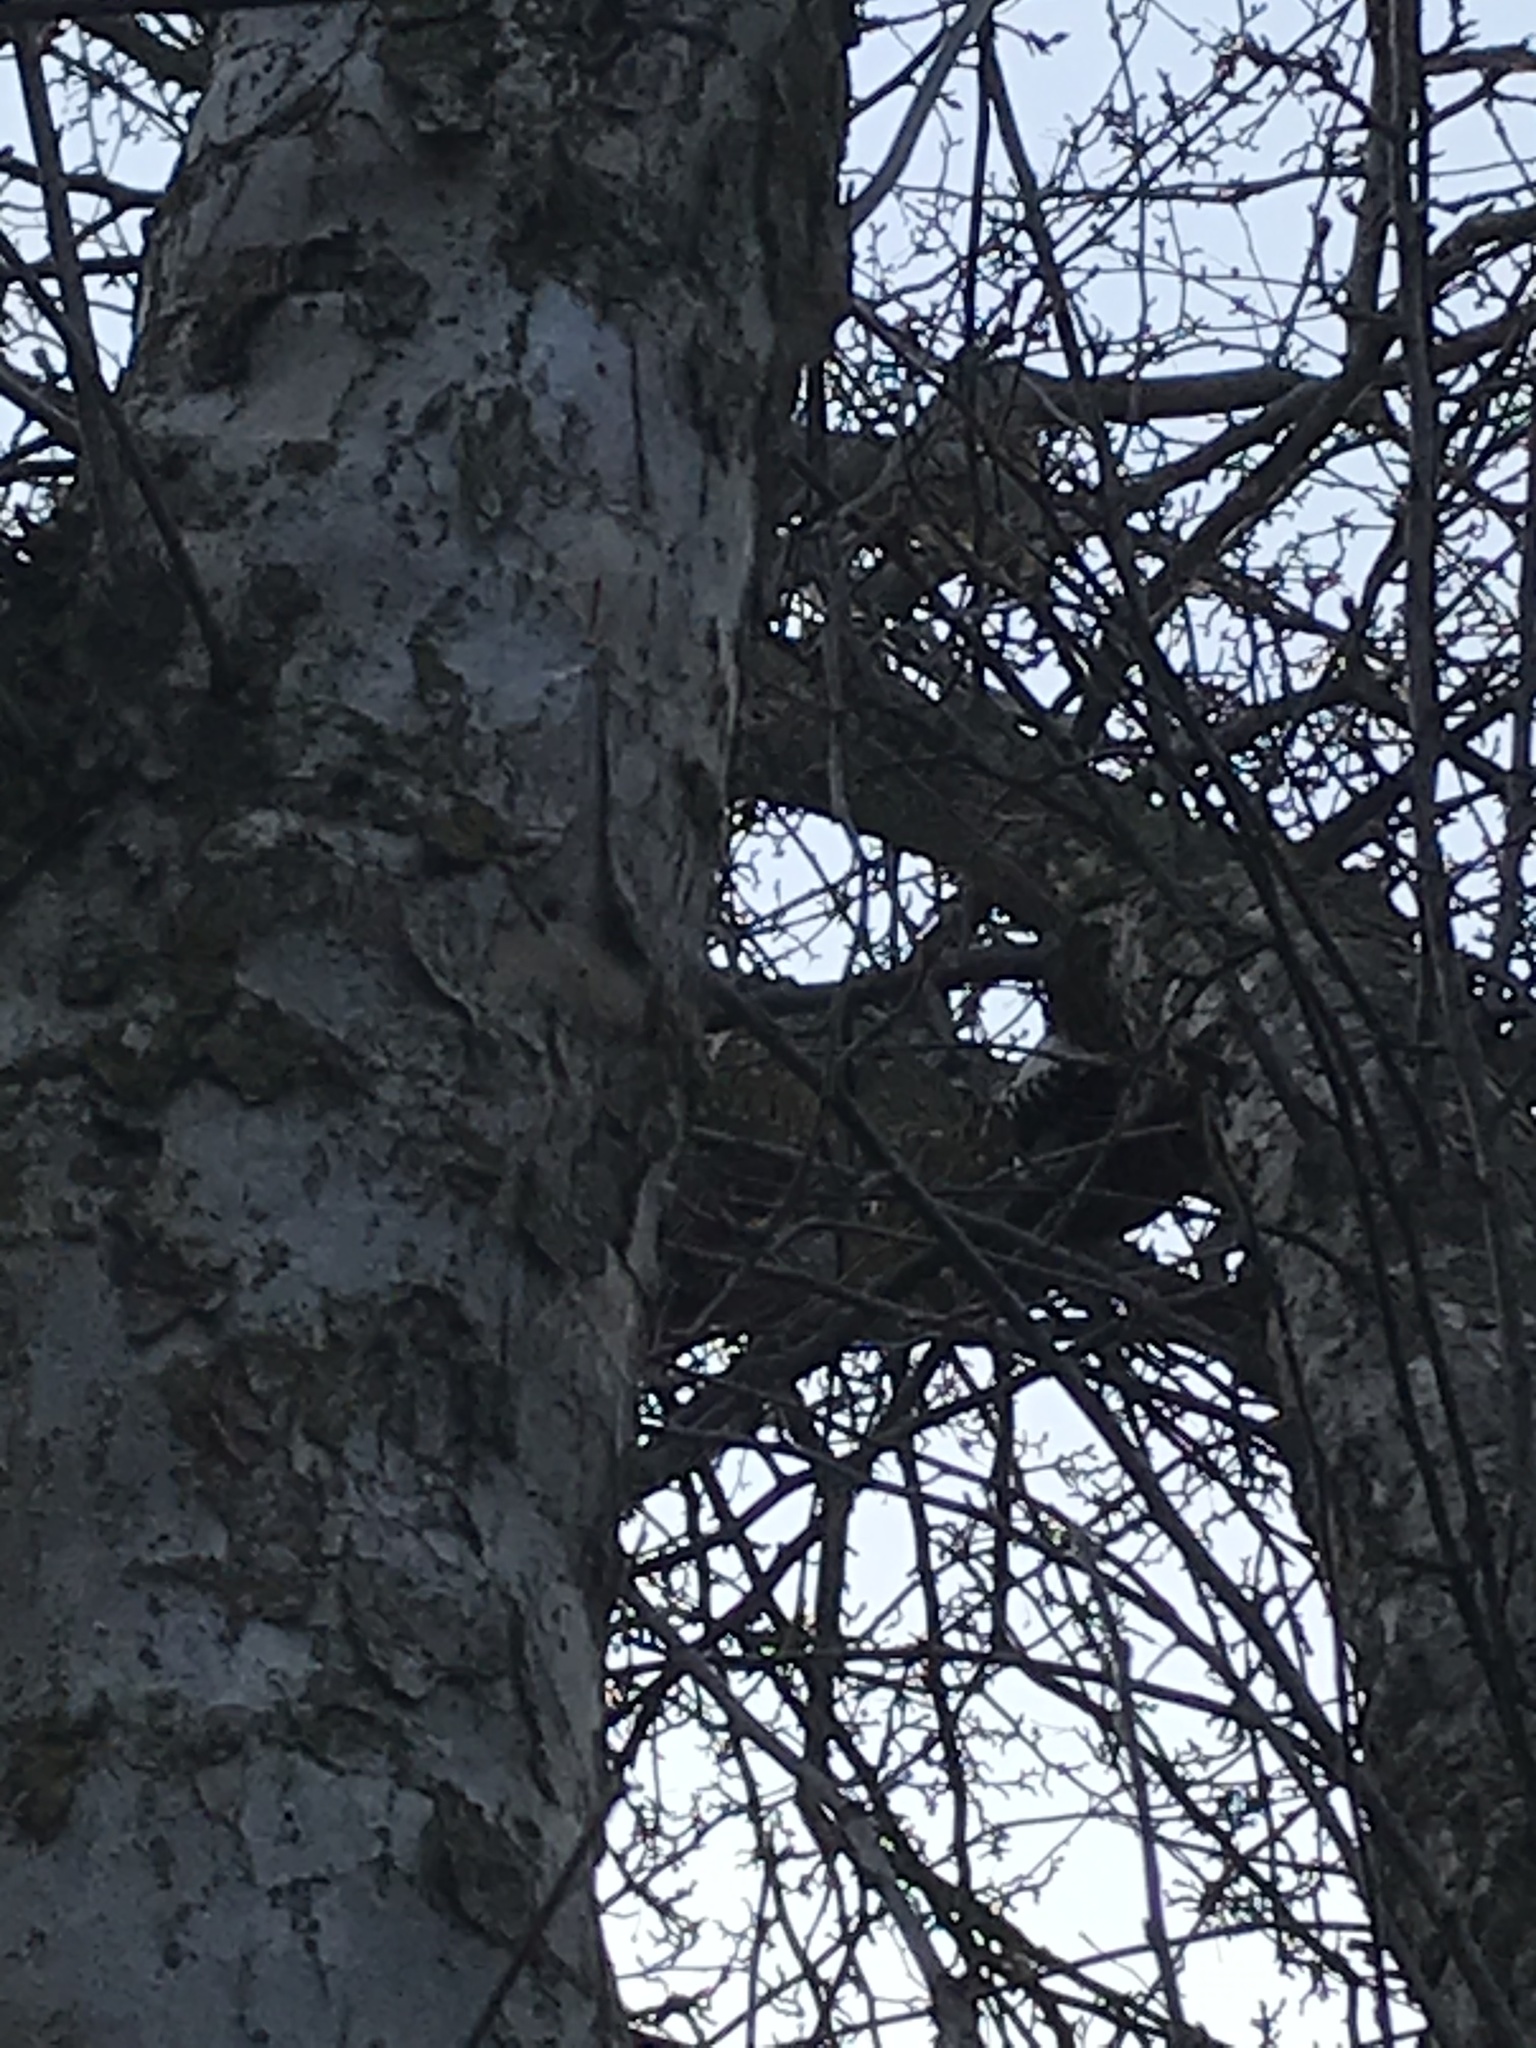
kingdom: Animalia
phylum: Chordata
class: Aves
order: Piciformes
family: Picidae
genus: Dryobates
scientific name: Dryobates pubescens
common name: Downy woodpecker
